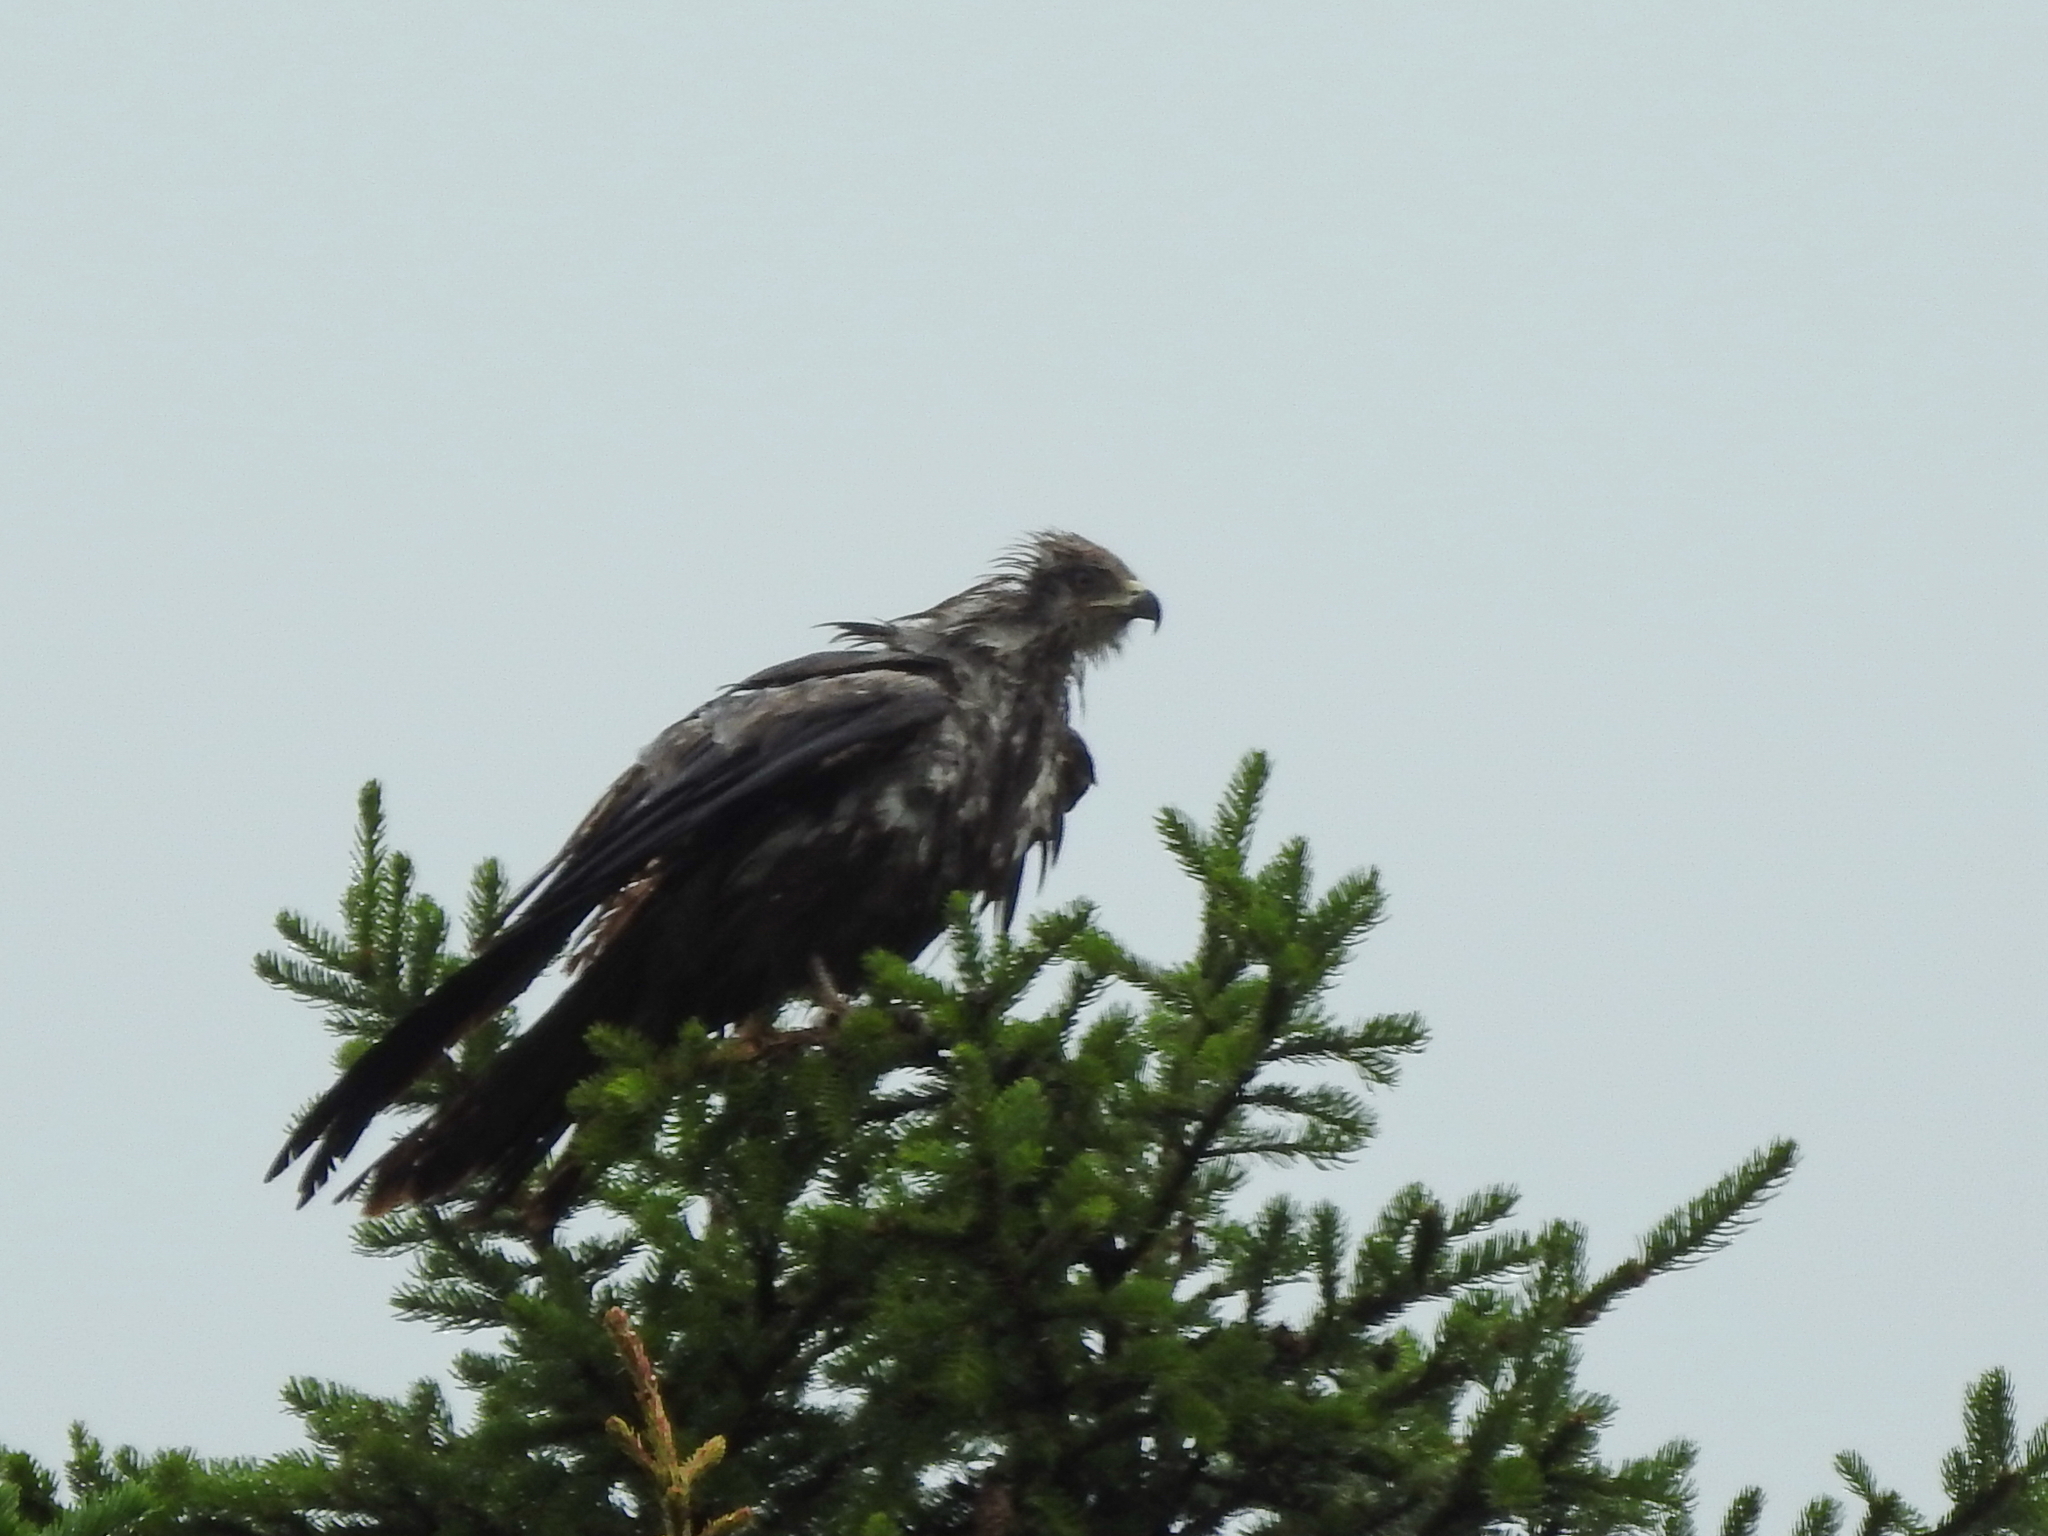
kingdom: Animalia
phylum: Chordata
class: Aves
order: Accipitriformes
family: Accipitridae
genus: Milvus
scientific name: Milvus migrans
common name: Black kite
